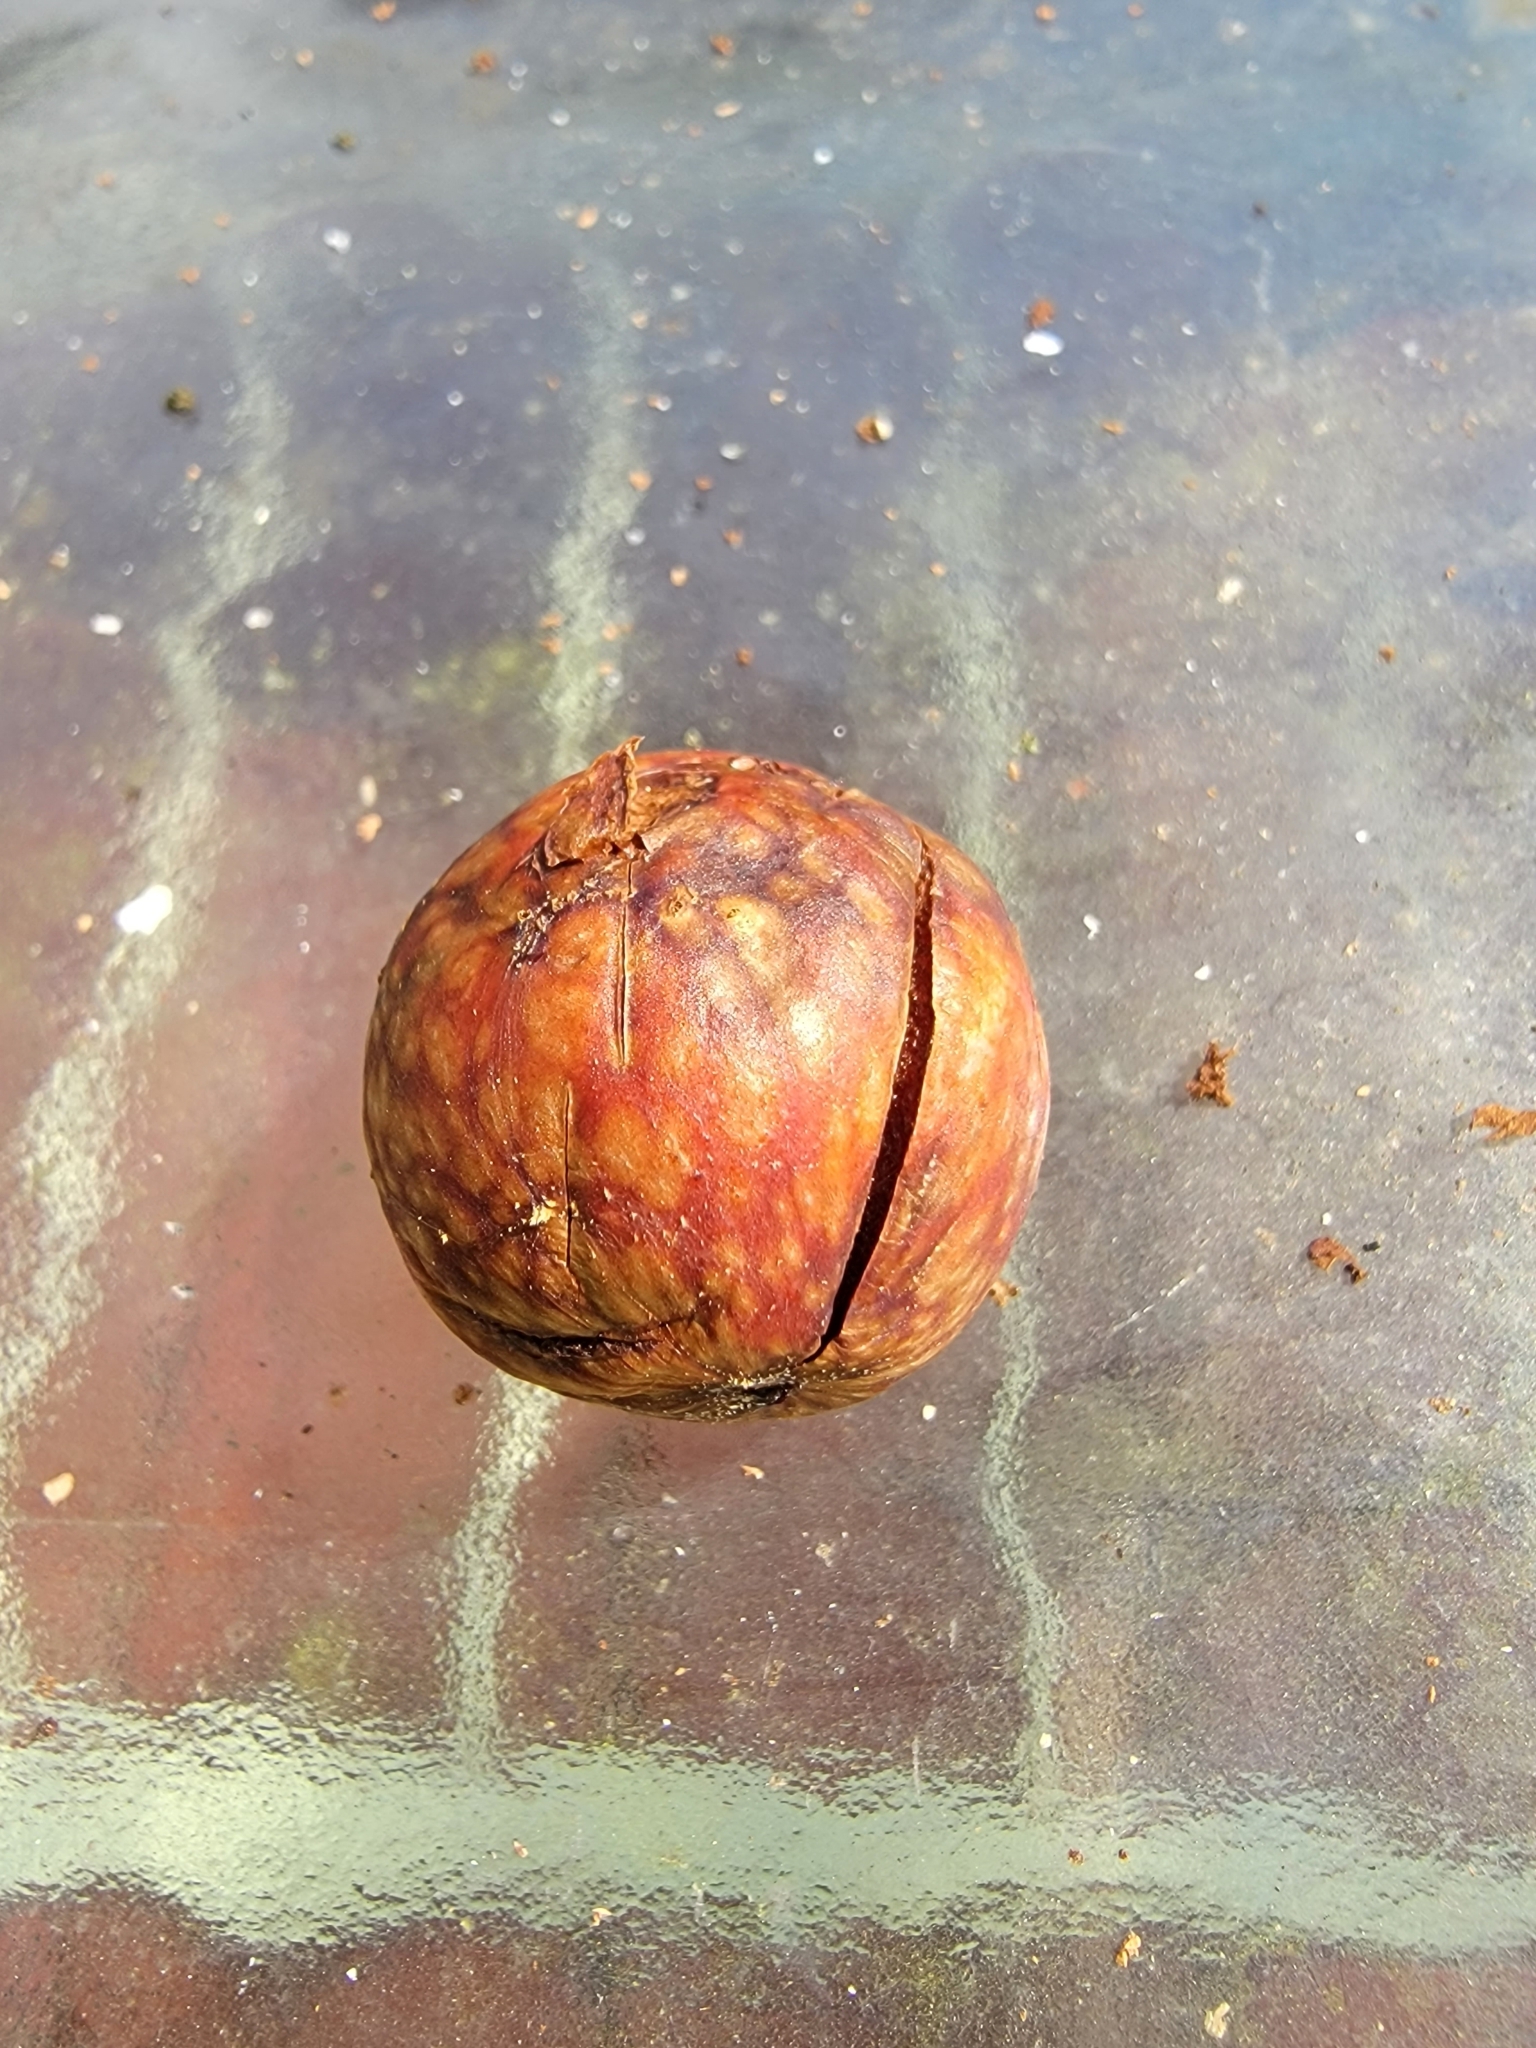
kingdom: Animalia
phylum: Arthropoda
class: Insecta
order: Hymenoptera
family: Cynipidae
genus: Amphibolips
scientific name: Amphibolips
